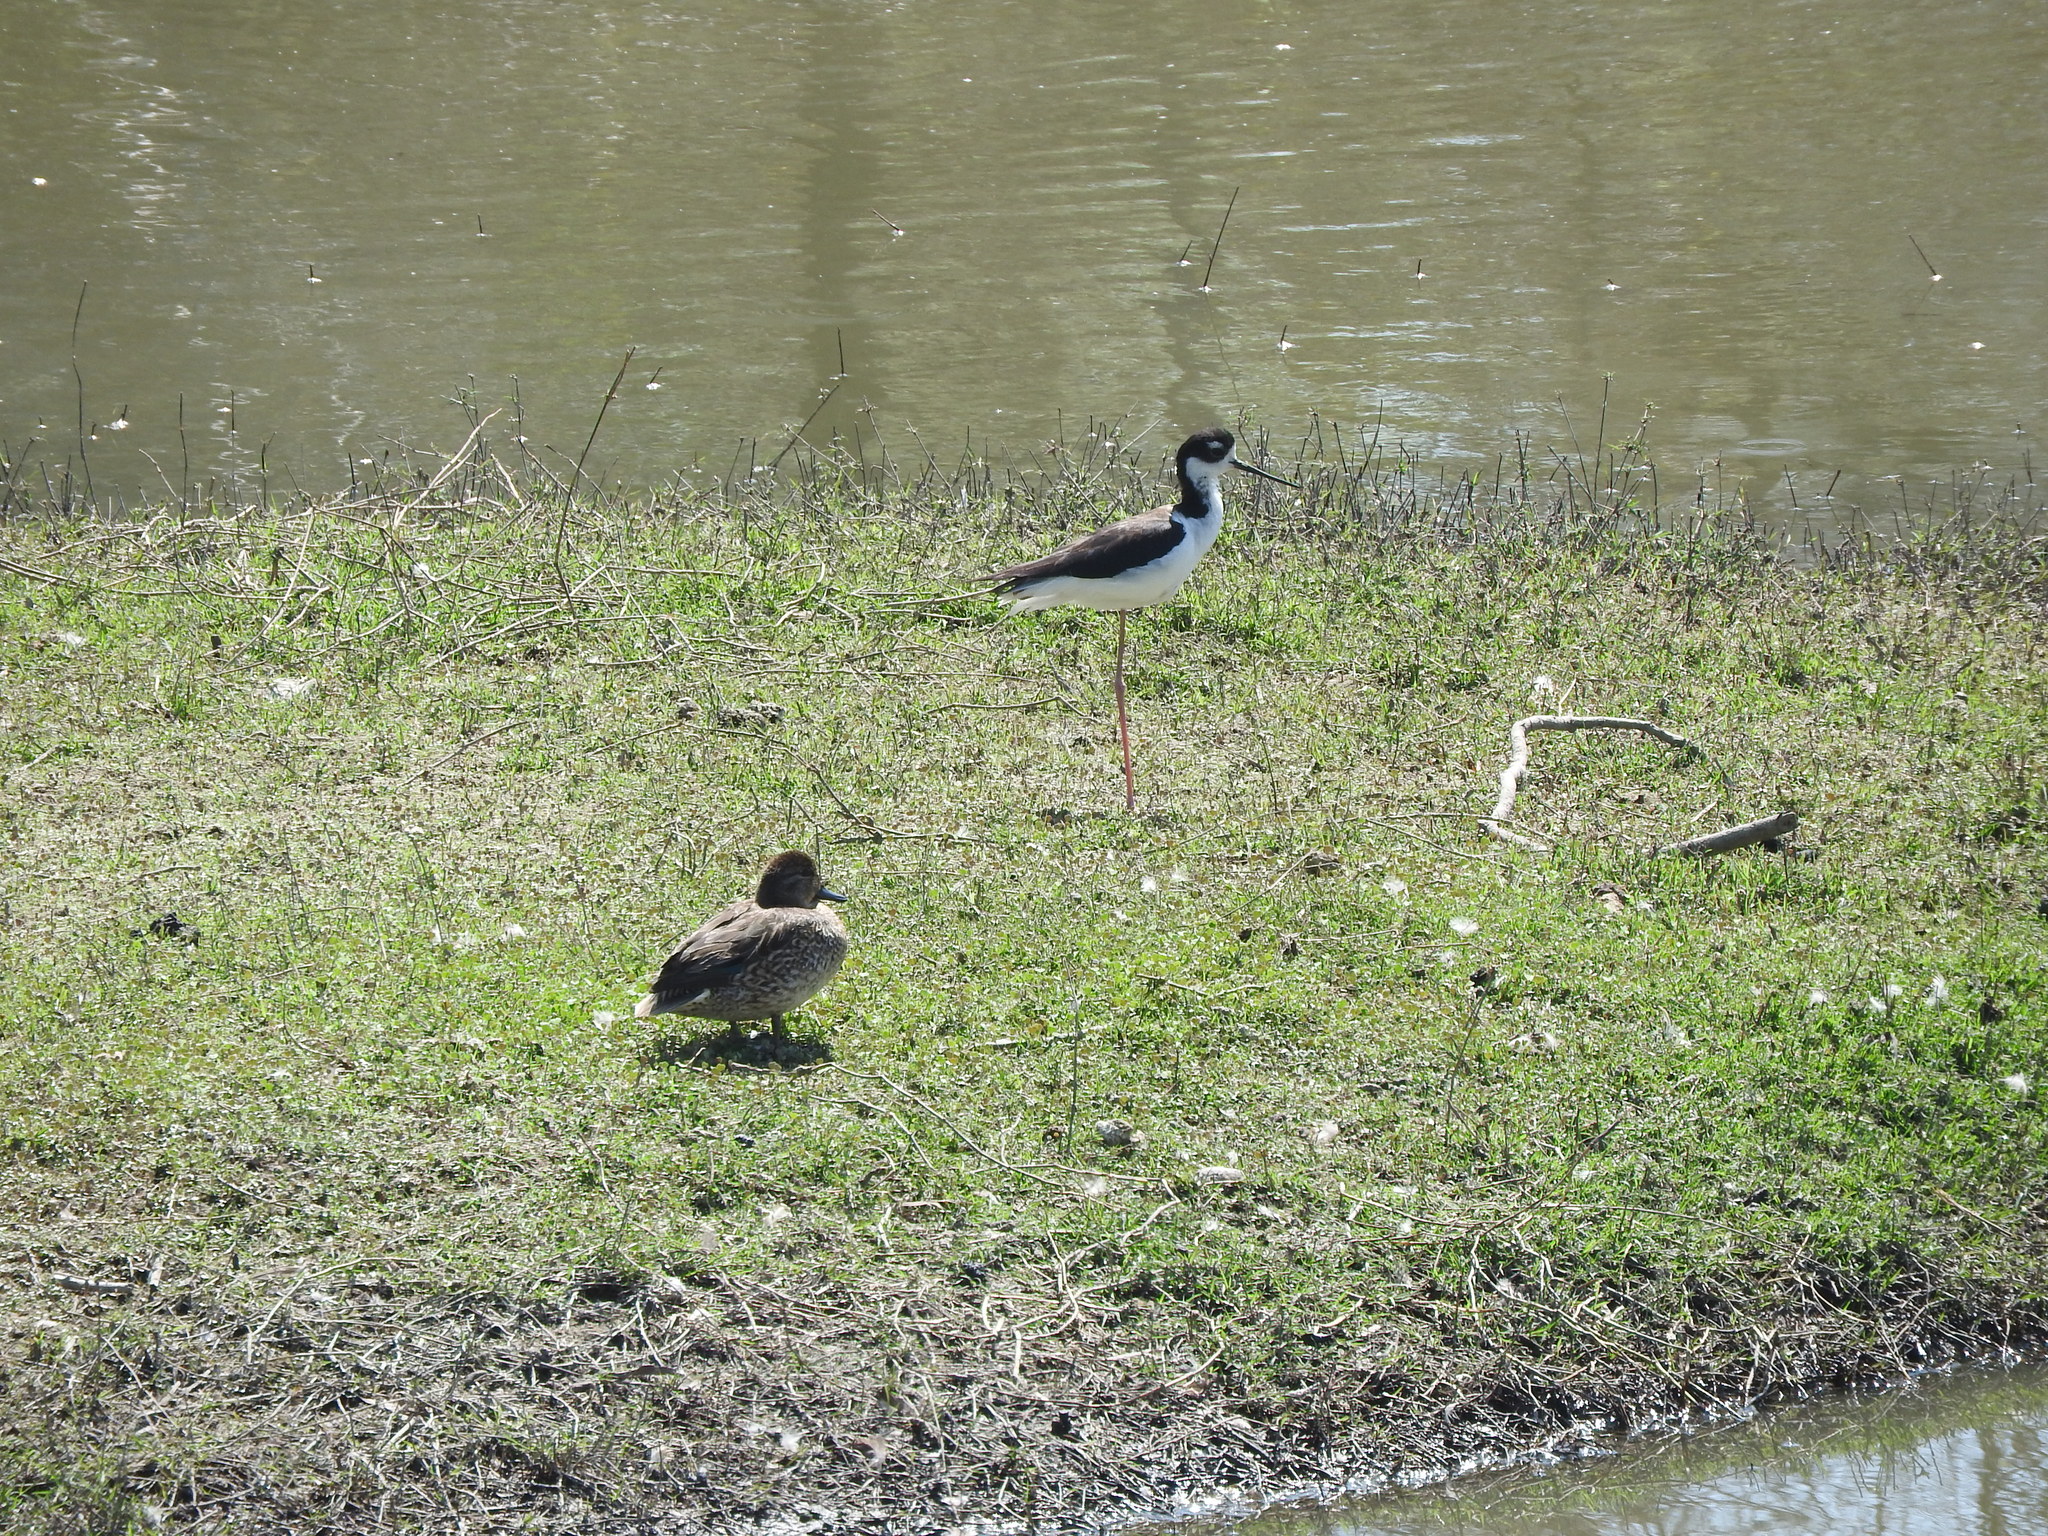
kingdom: Animalia
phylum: Chordata
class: Aves
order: Charadriiformes
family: Recurvirostridae
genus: Himantopus
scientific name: Himantopus mexicanus
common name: Black-necked stilt
